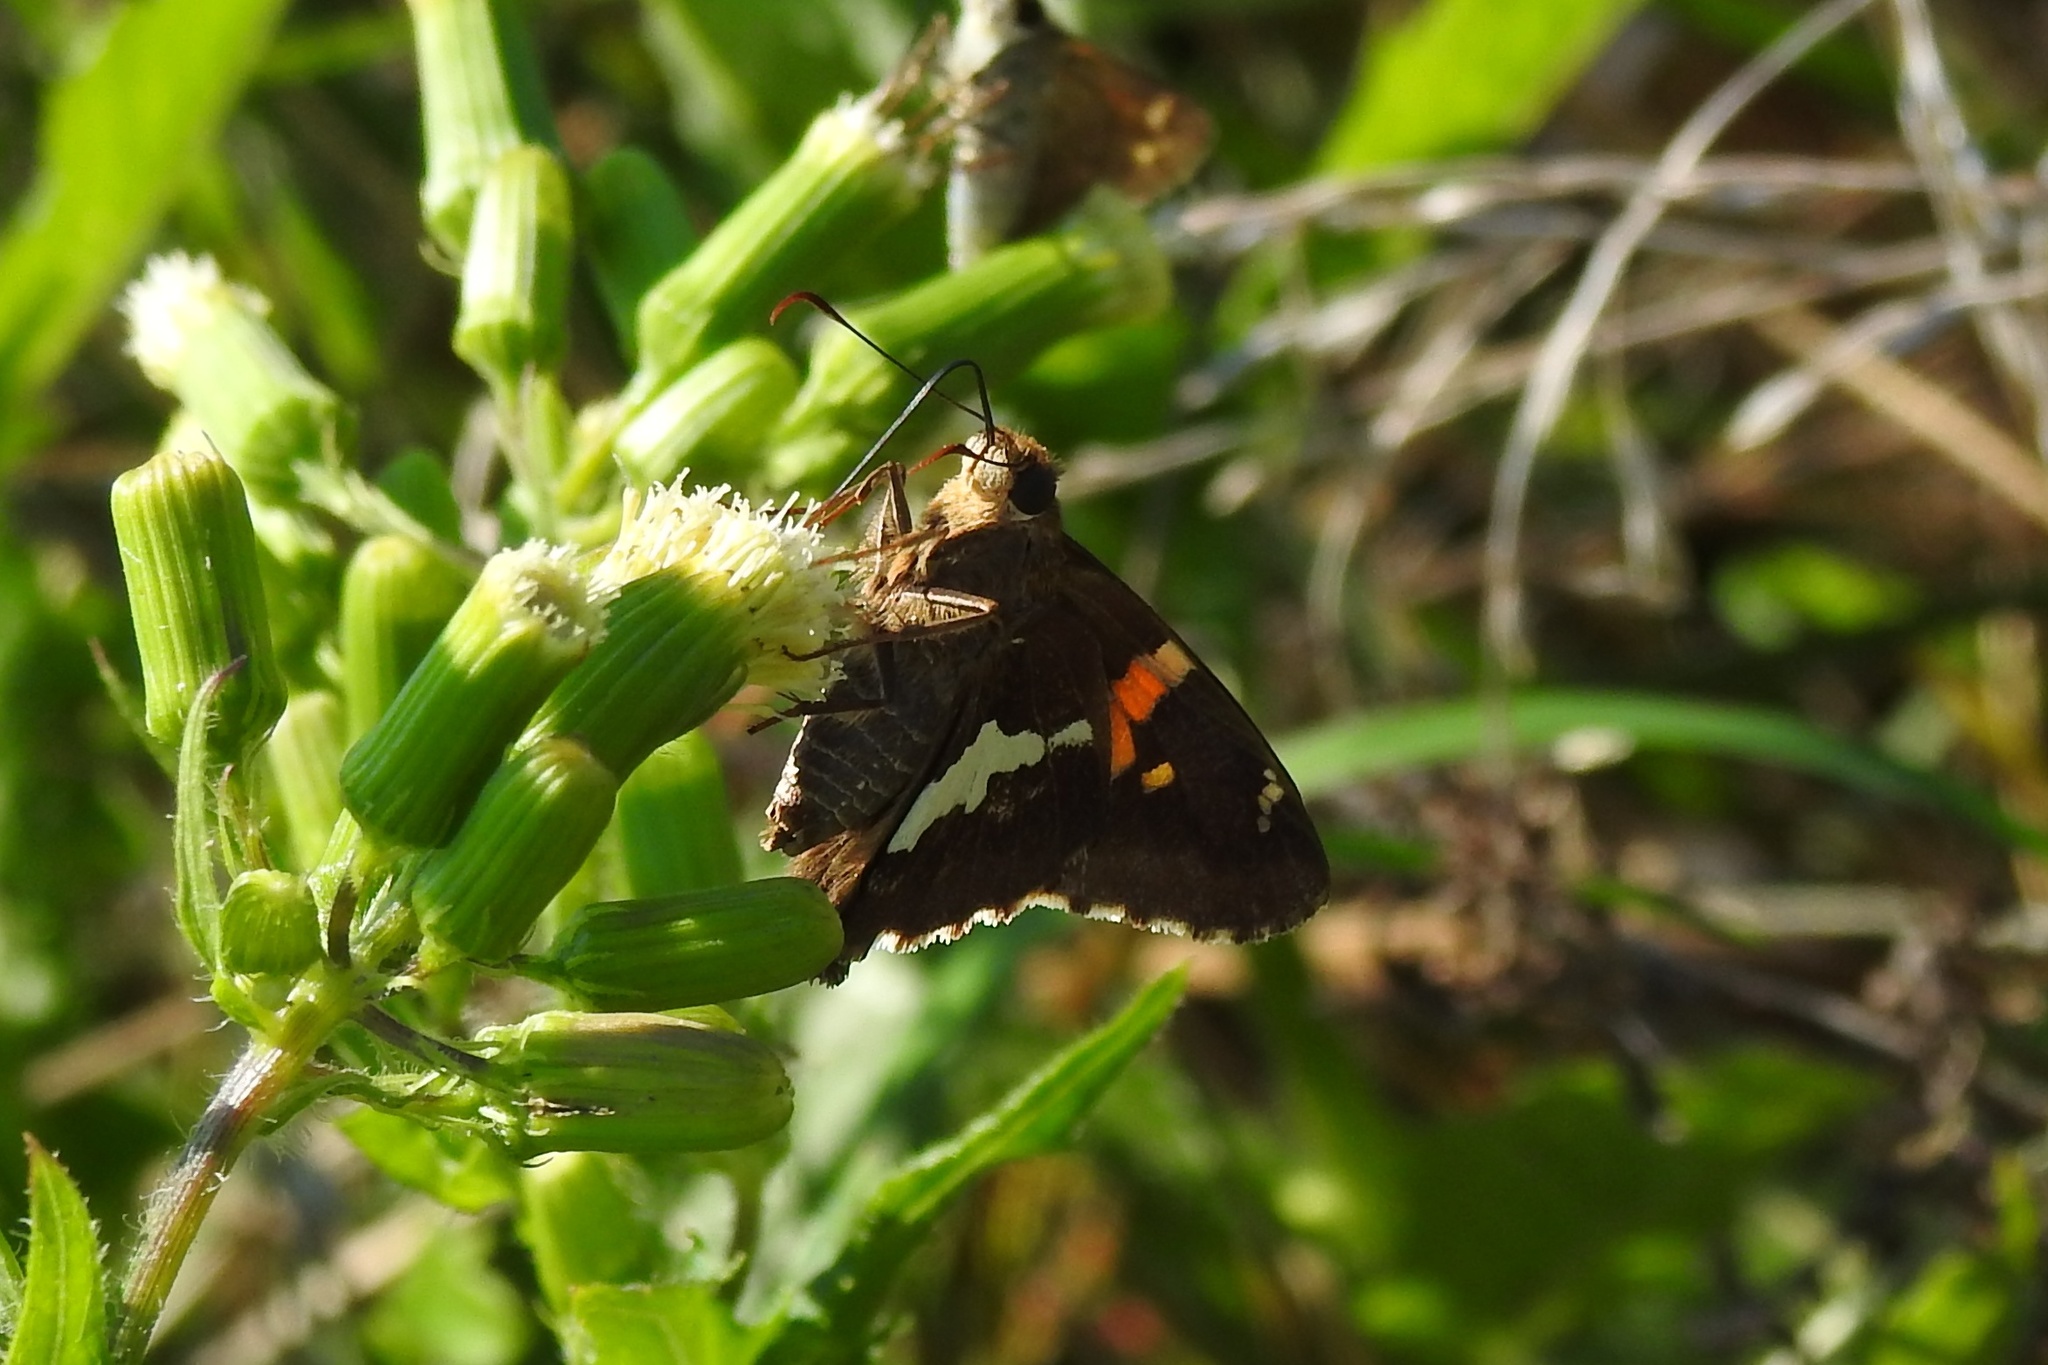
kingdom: Animalia
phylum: Arthropoda
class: Insecta
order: Lepidoptera
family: Hesperiidae
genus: Epargyreus
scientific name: Epargyreus clarus
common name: Silver-spotted skipper
